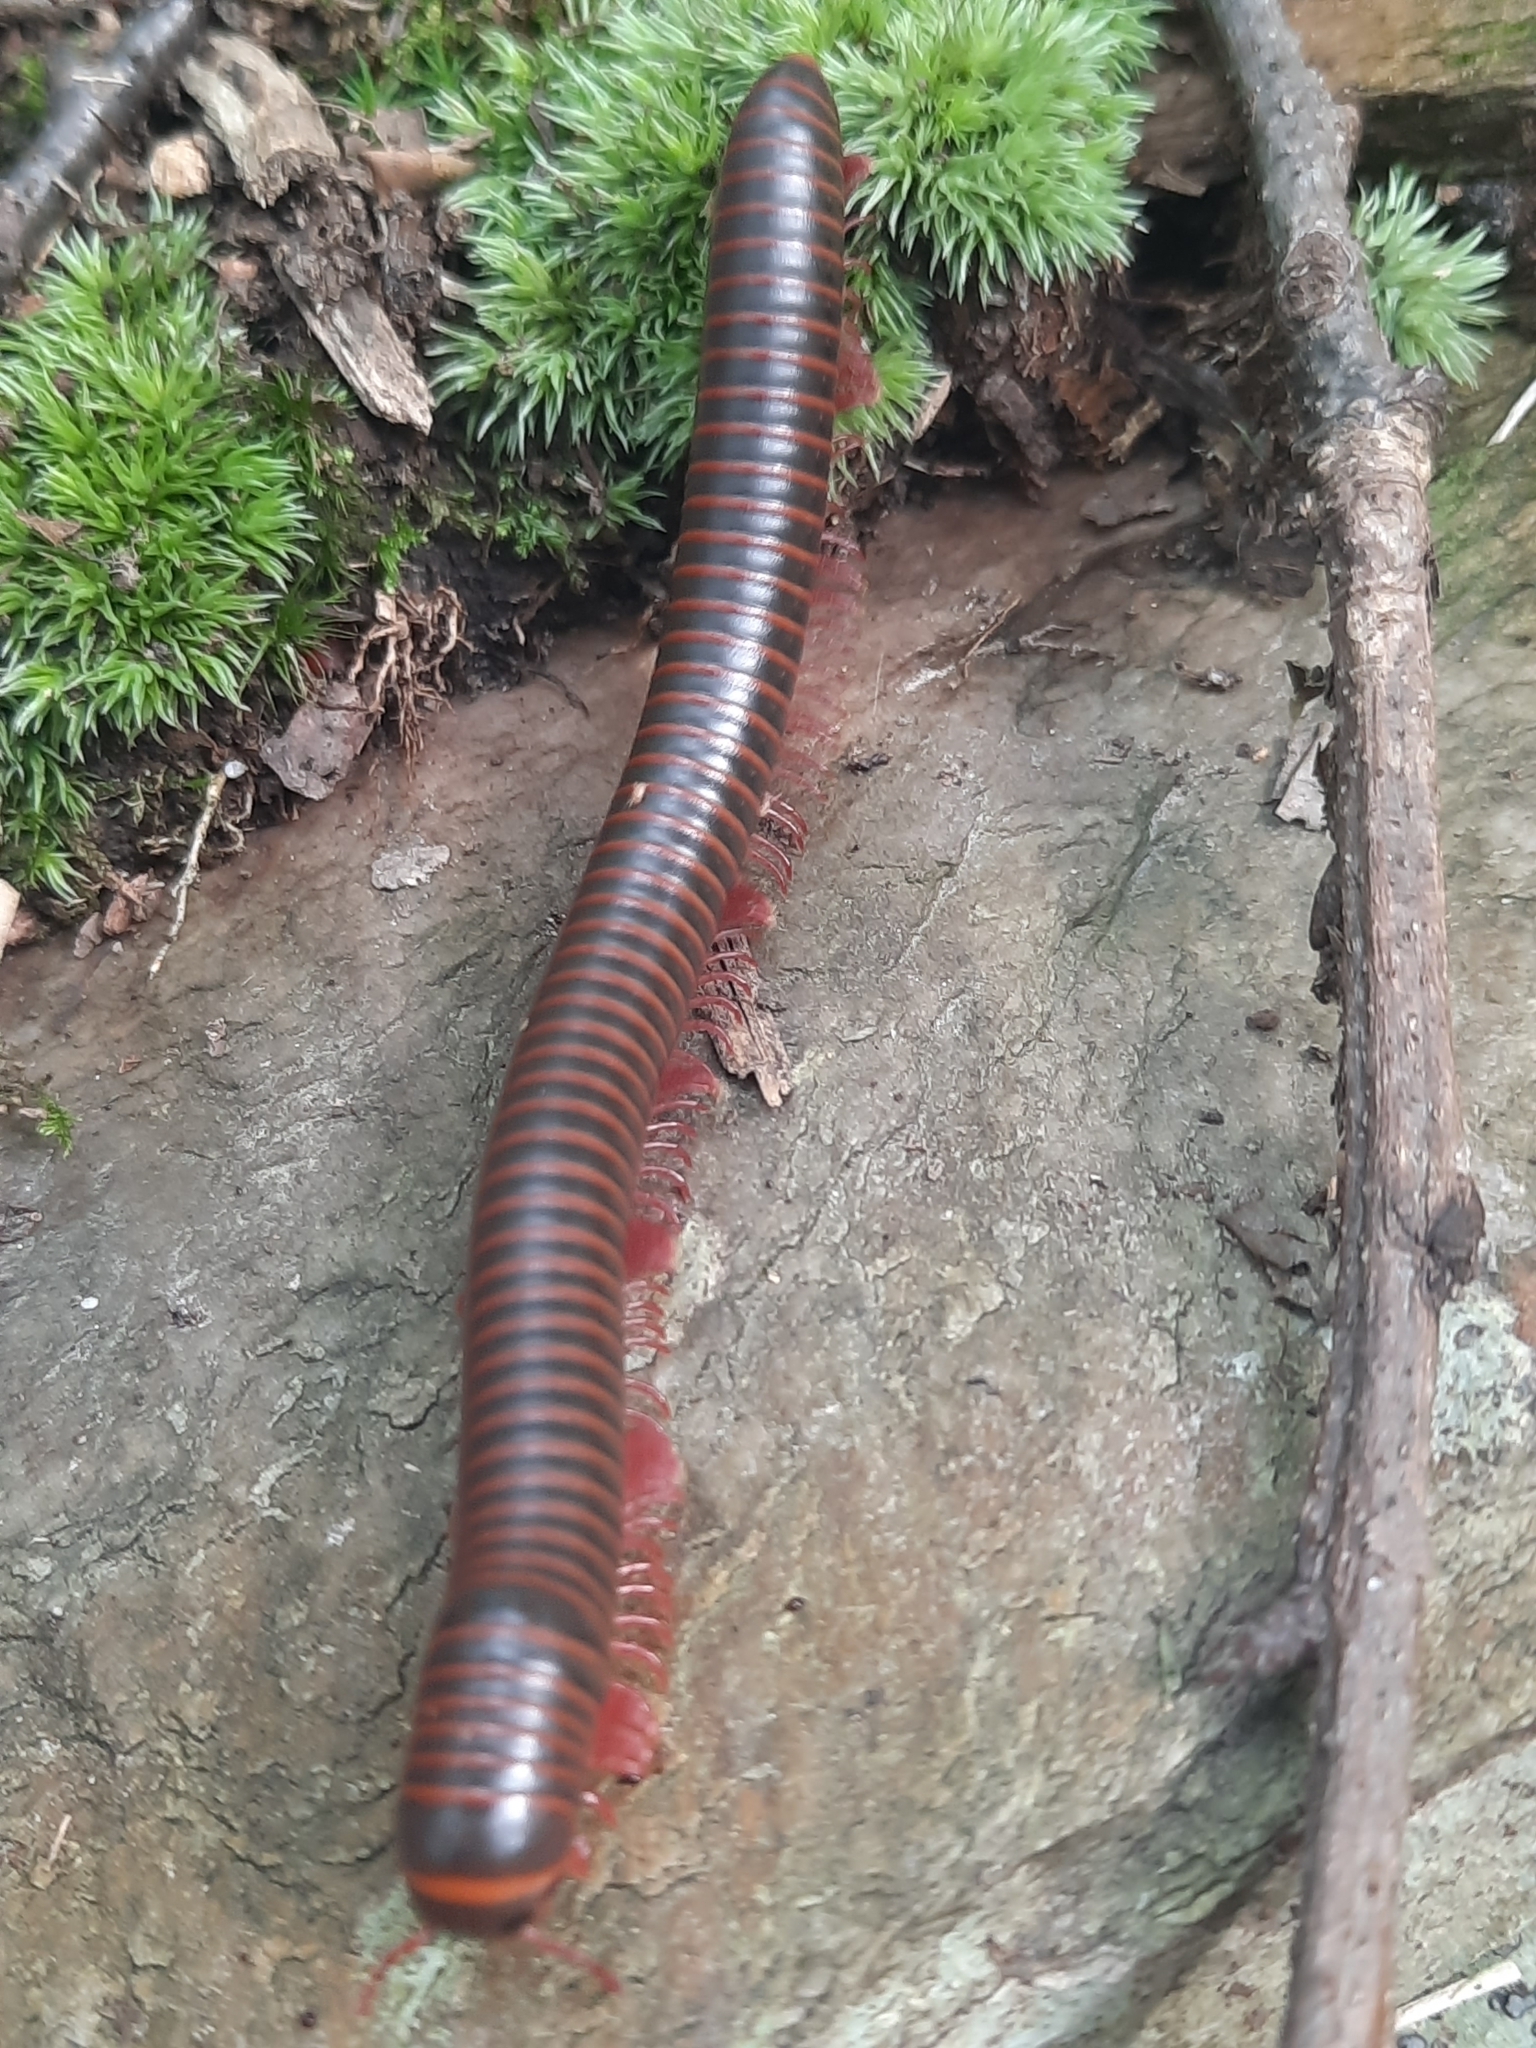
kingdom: Animalia
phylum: Arthropoda
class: Diplopoda
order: Spirobolida
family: Spirobolidae
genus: Narceus
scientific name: Narceus americanus
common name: American giant millipede
